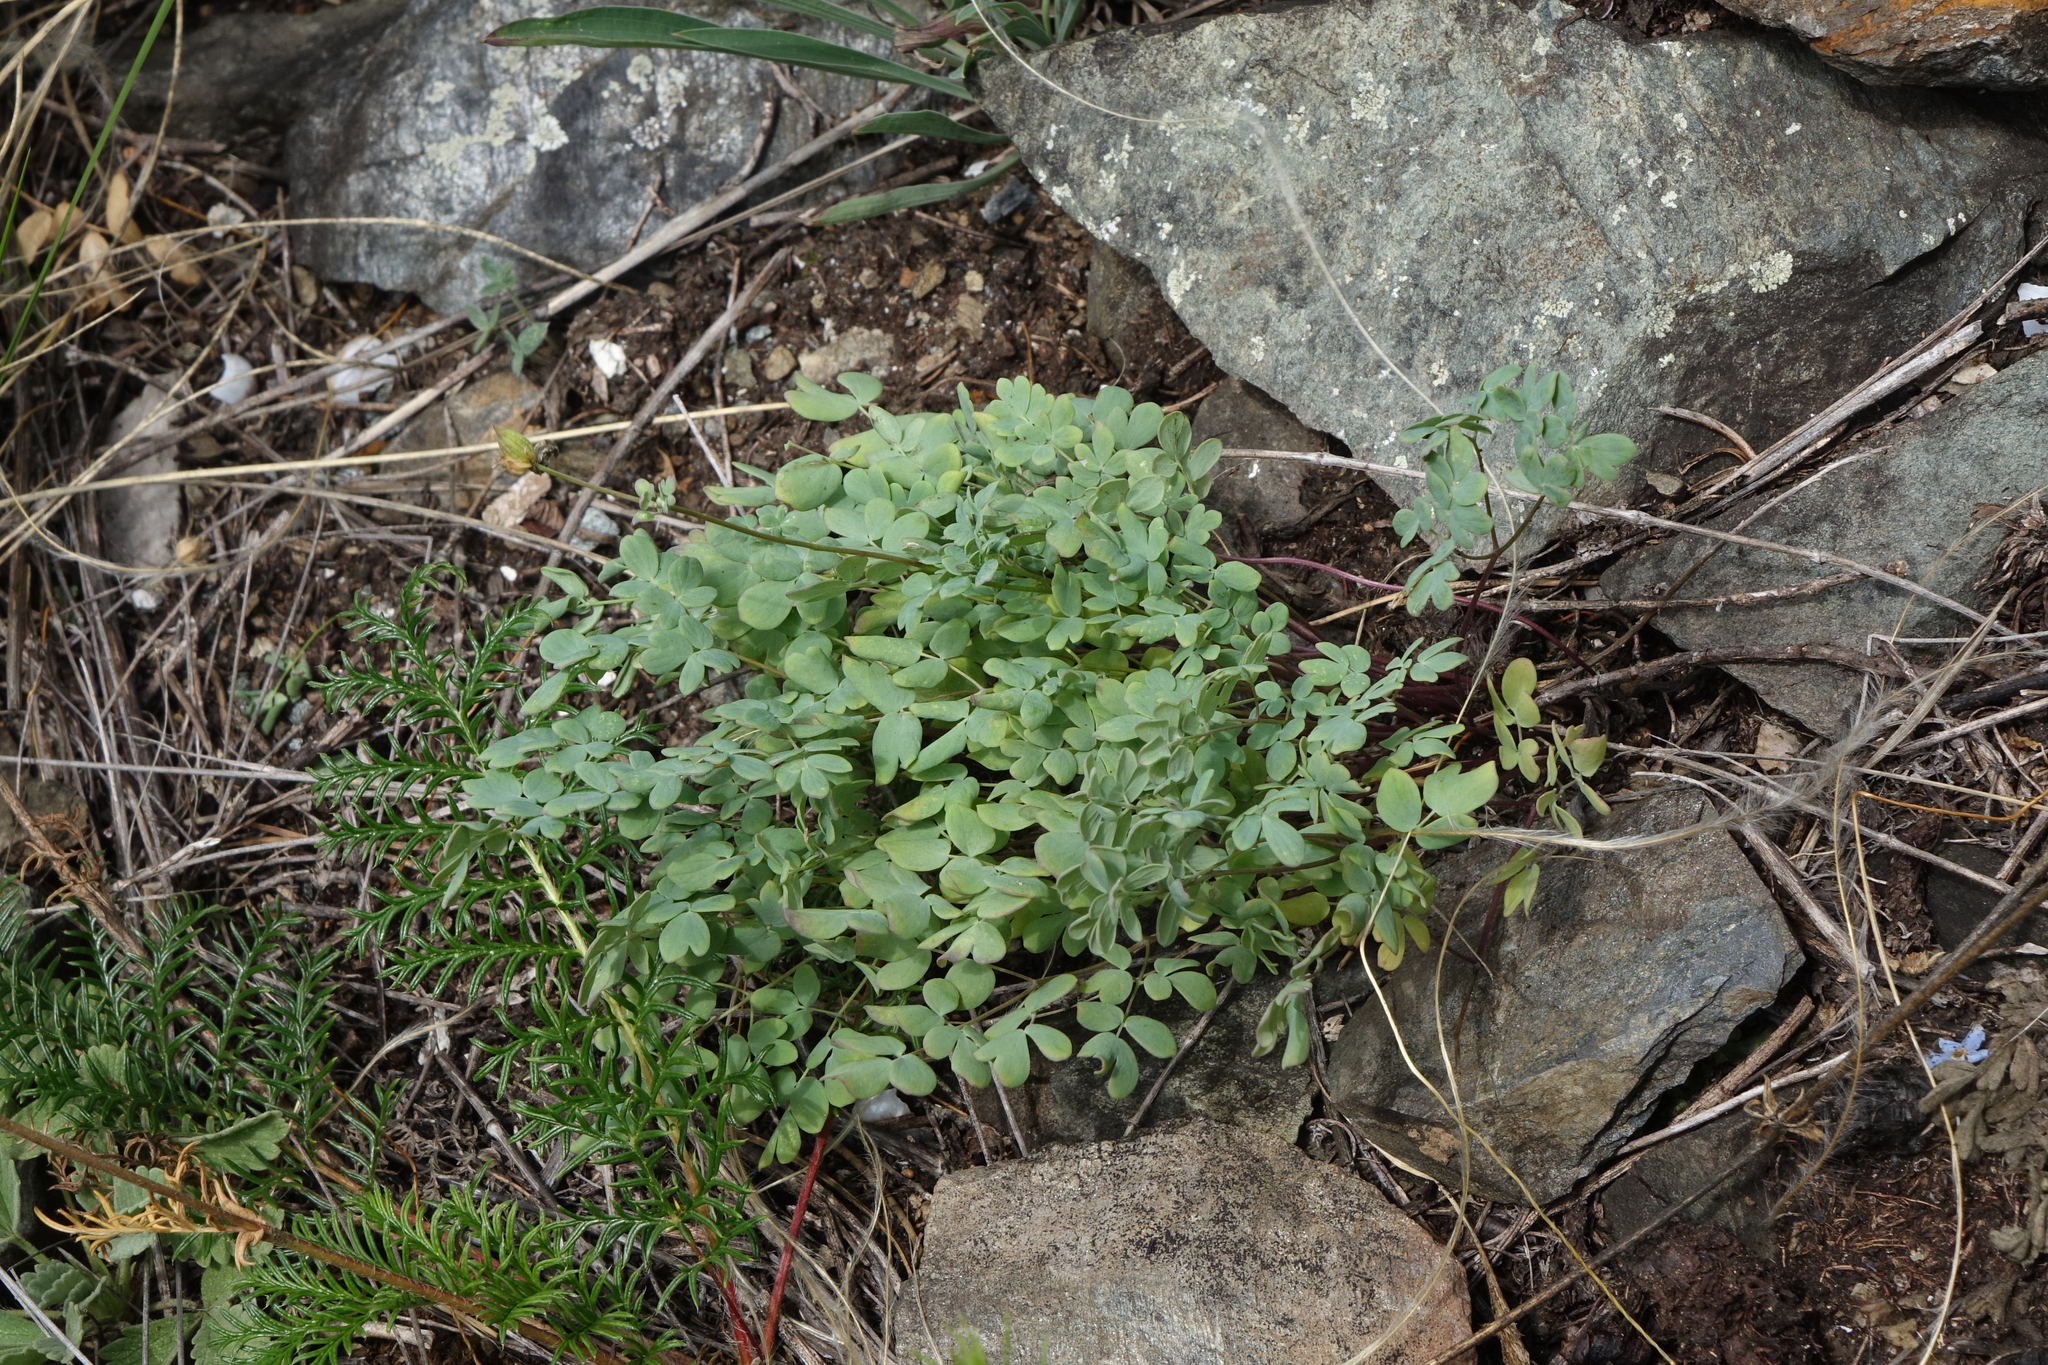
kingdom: Plantae
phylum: Tracheophyta
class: Magnoliopsida
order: Ranunculales
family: Ranunculaceae
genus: Leptopyrum
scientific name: Leptopyrum fumarioides
